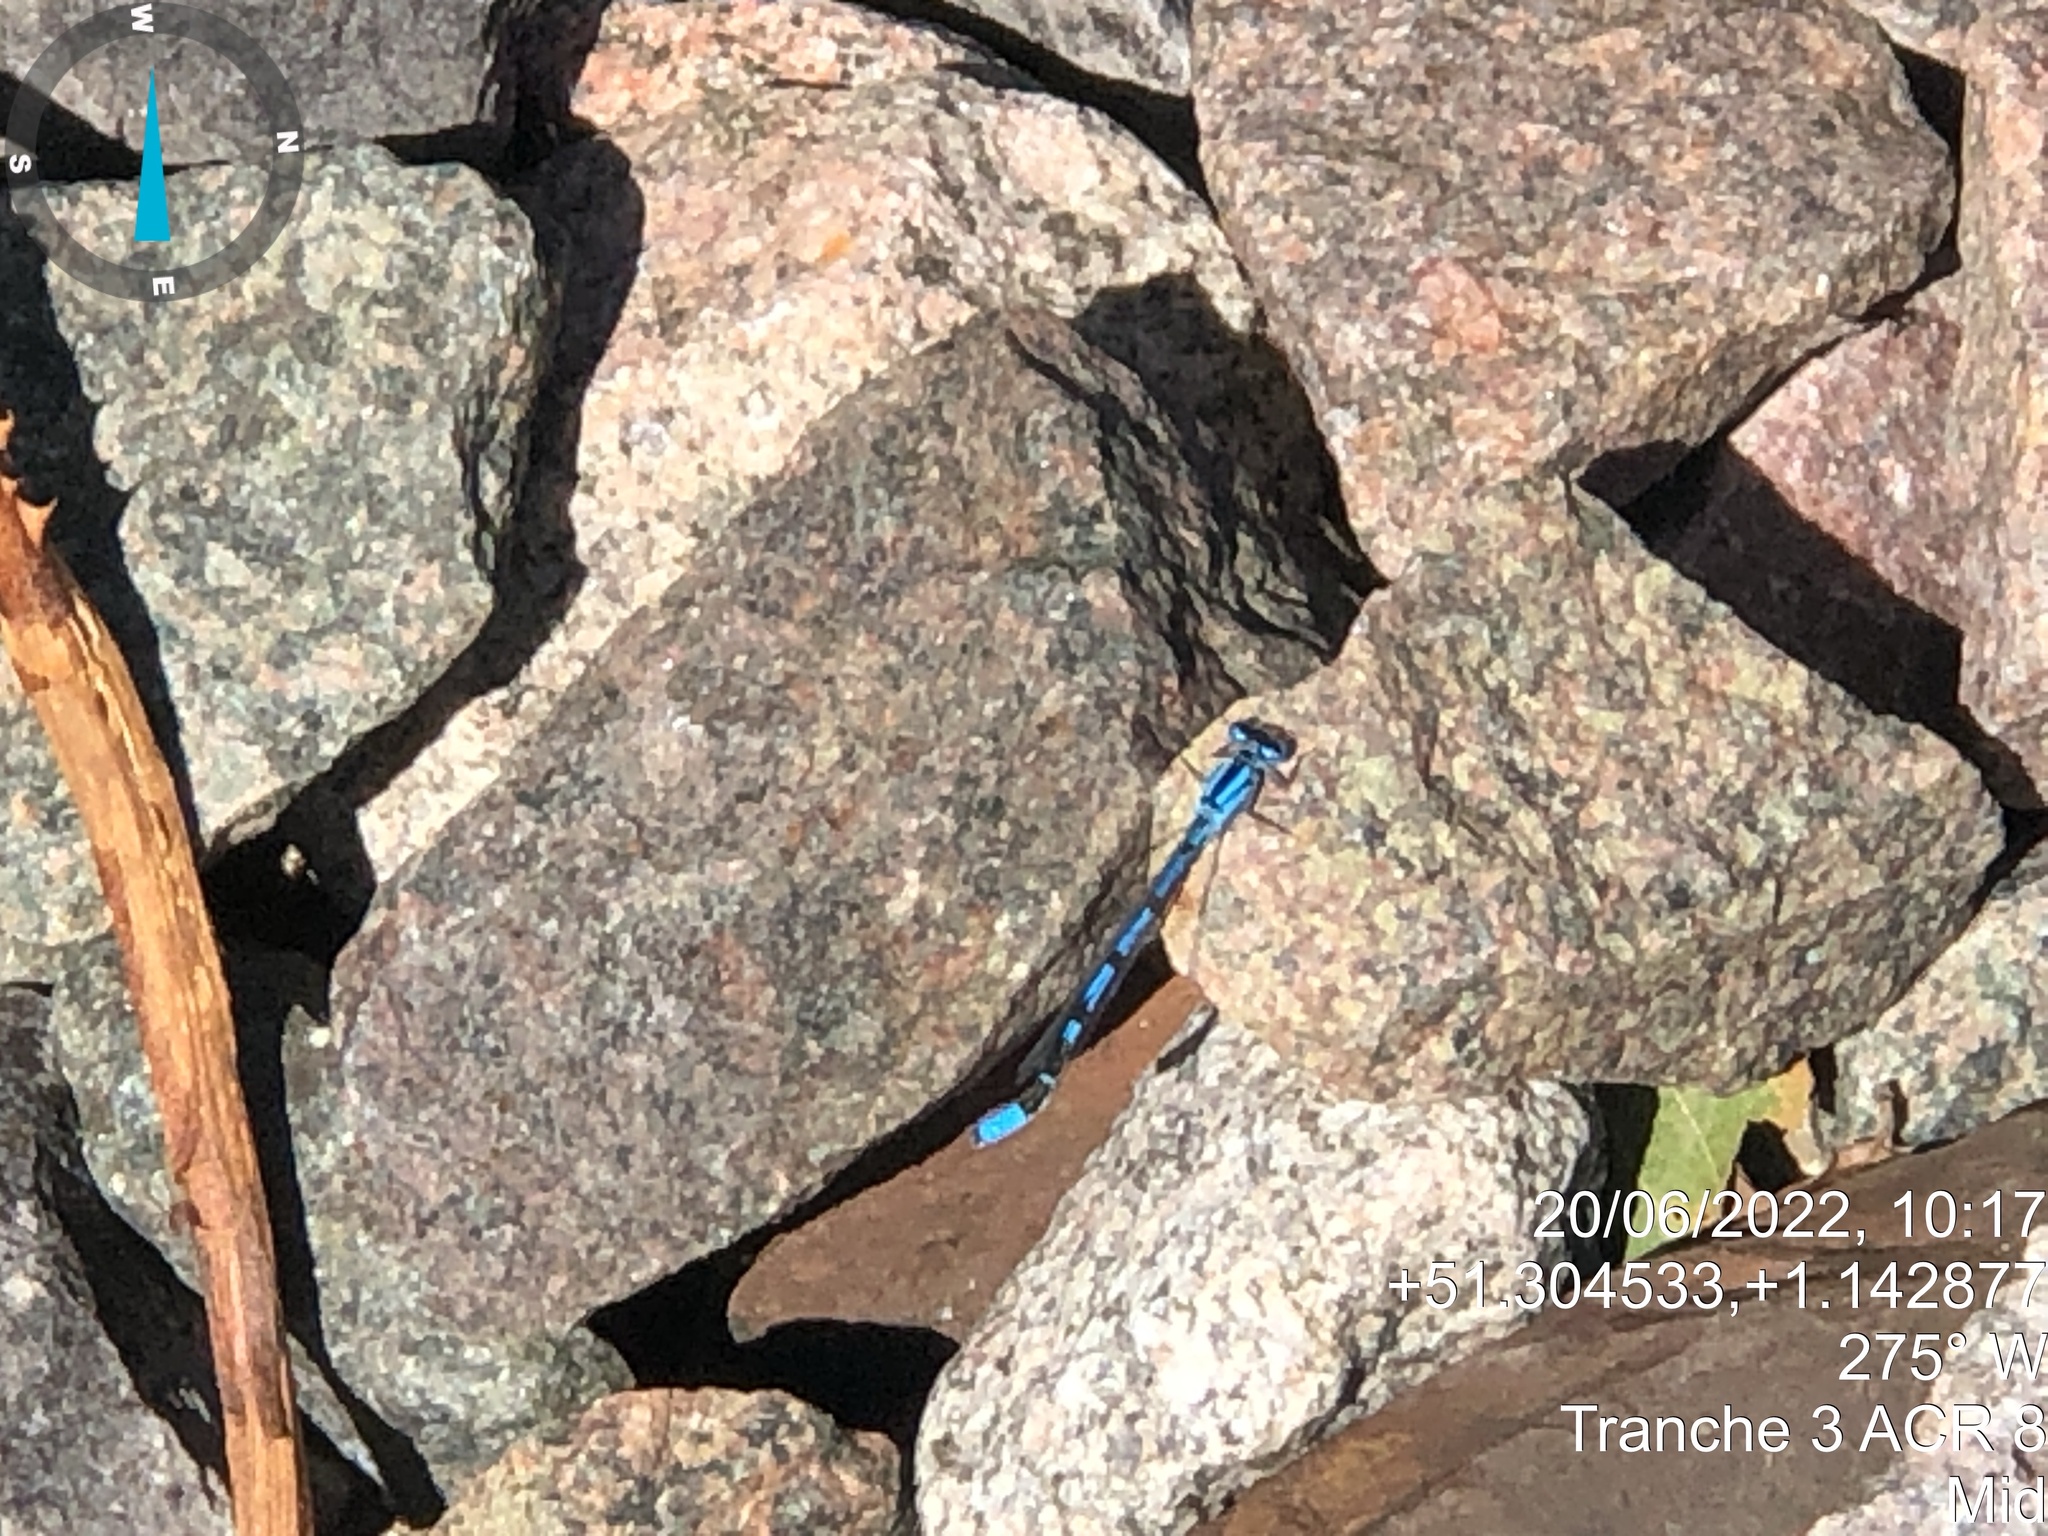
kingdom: Animalia
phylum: Arthropoda
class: Insecta
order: Odonata
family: Coenagrionidae
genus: Enallagma
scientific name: Enallagma cyathigerum
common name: Common blue damselfly
